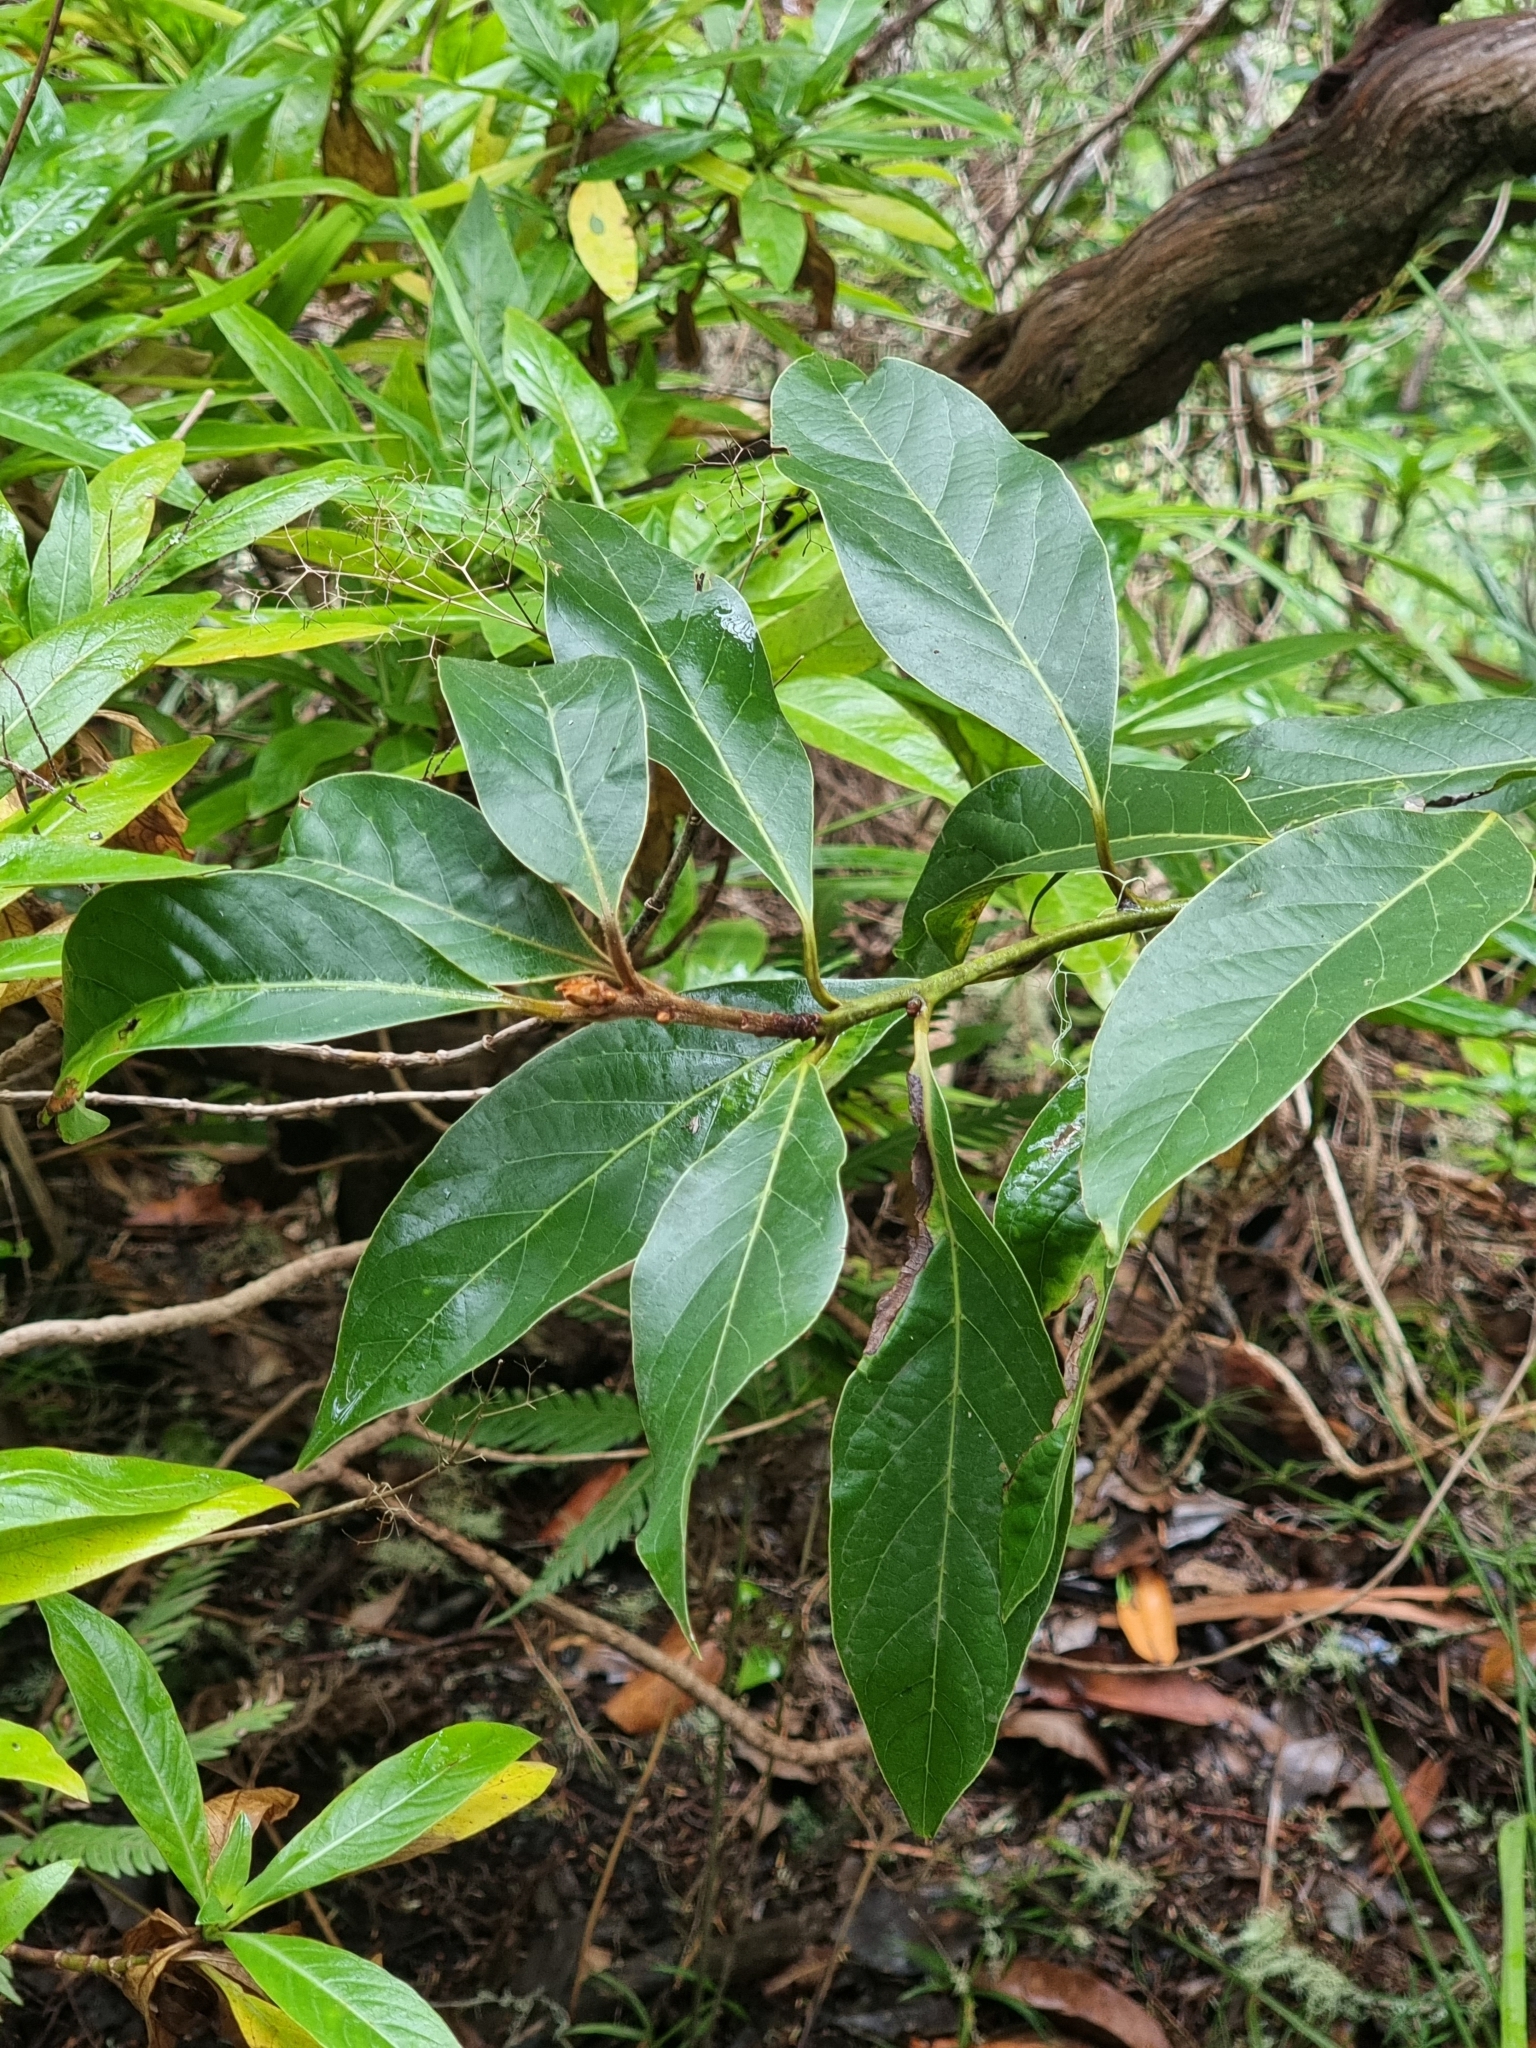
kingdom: Plantae
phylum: Tracheophyta
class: Magnoliopsida
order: Laurales
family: Lauraceae
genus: Laurus
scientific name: Laurus novocanariensis
